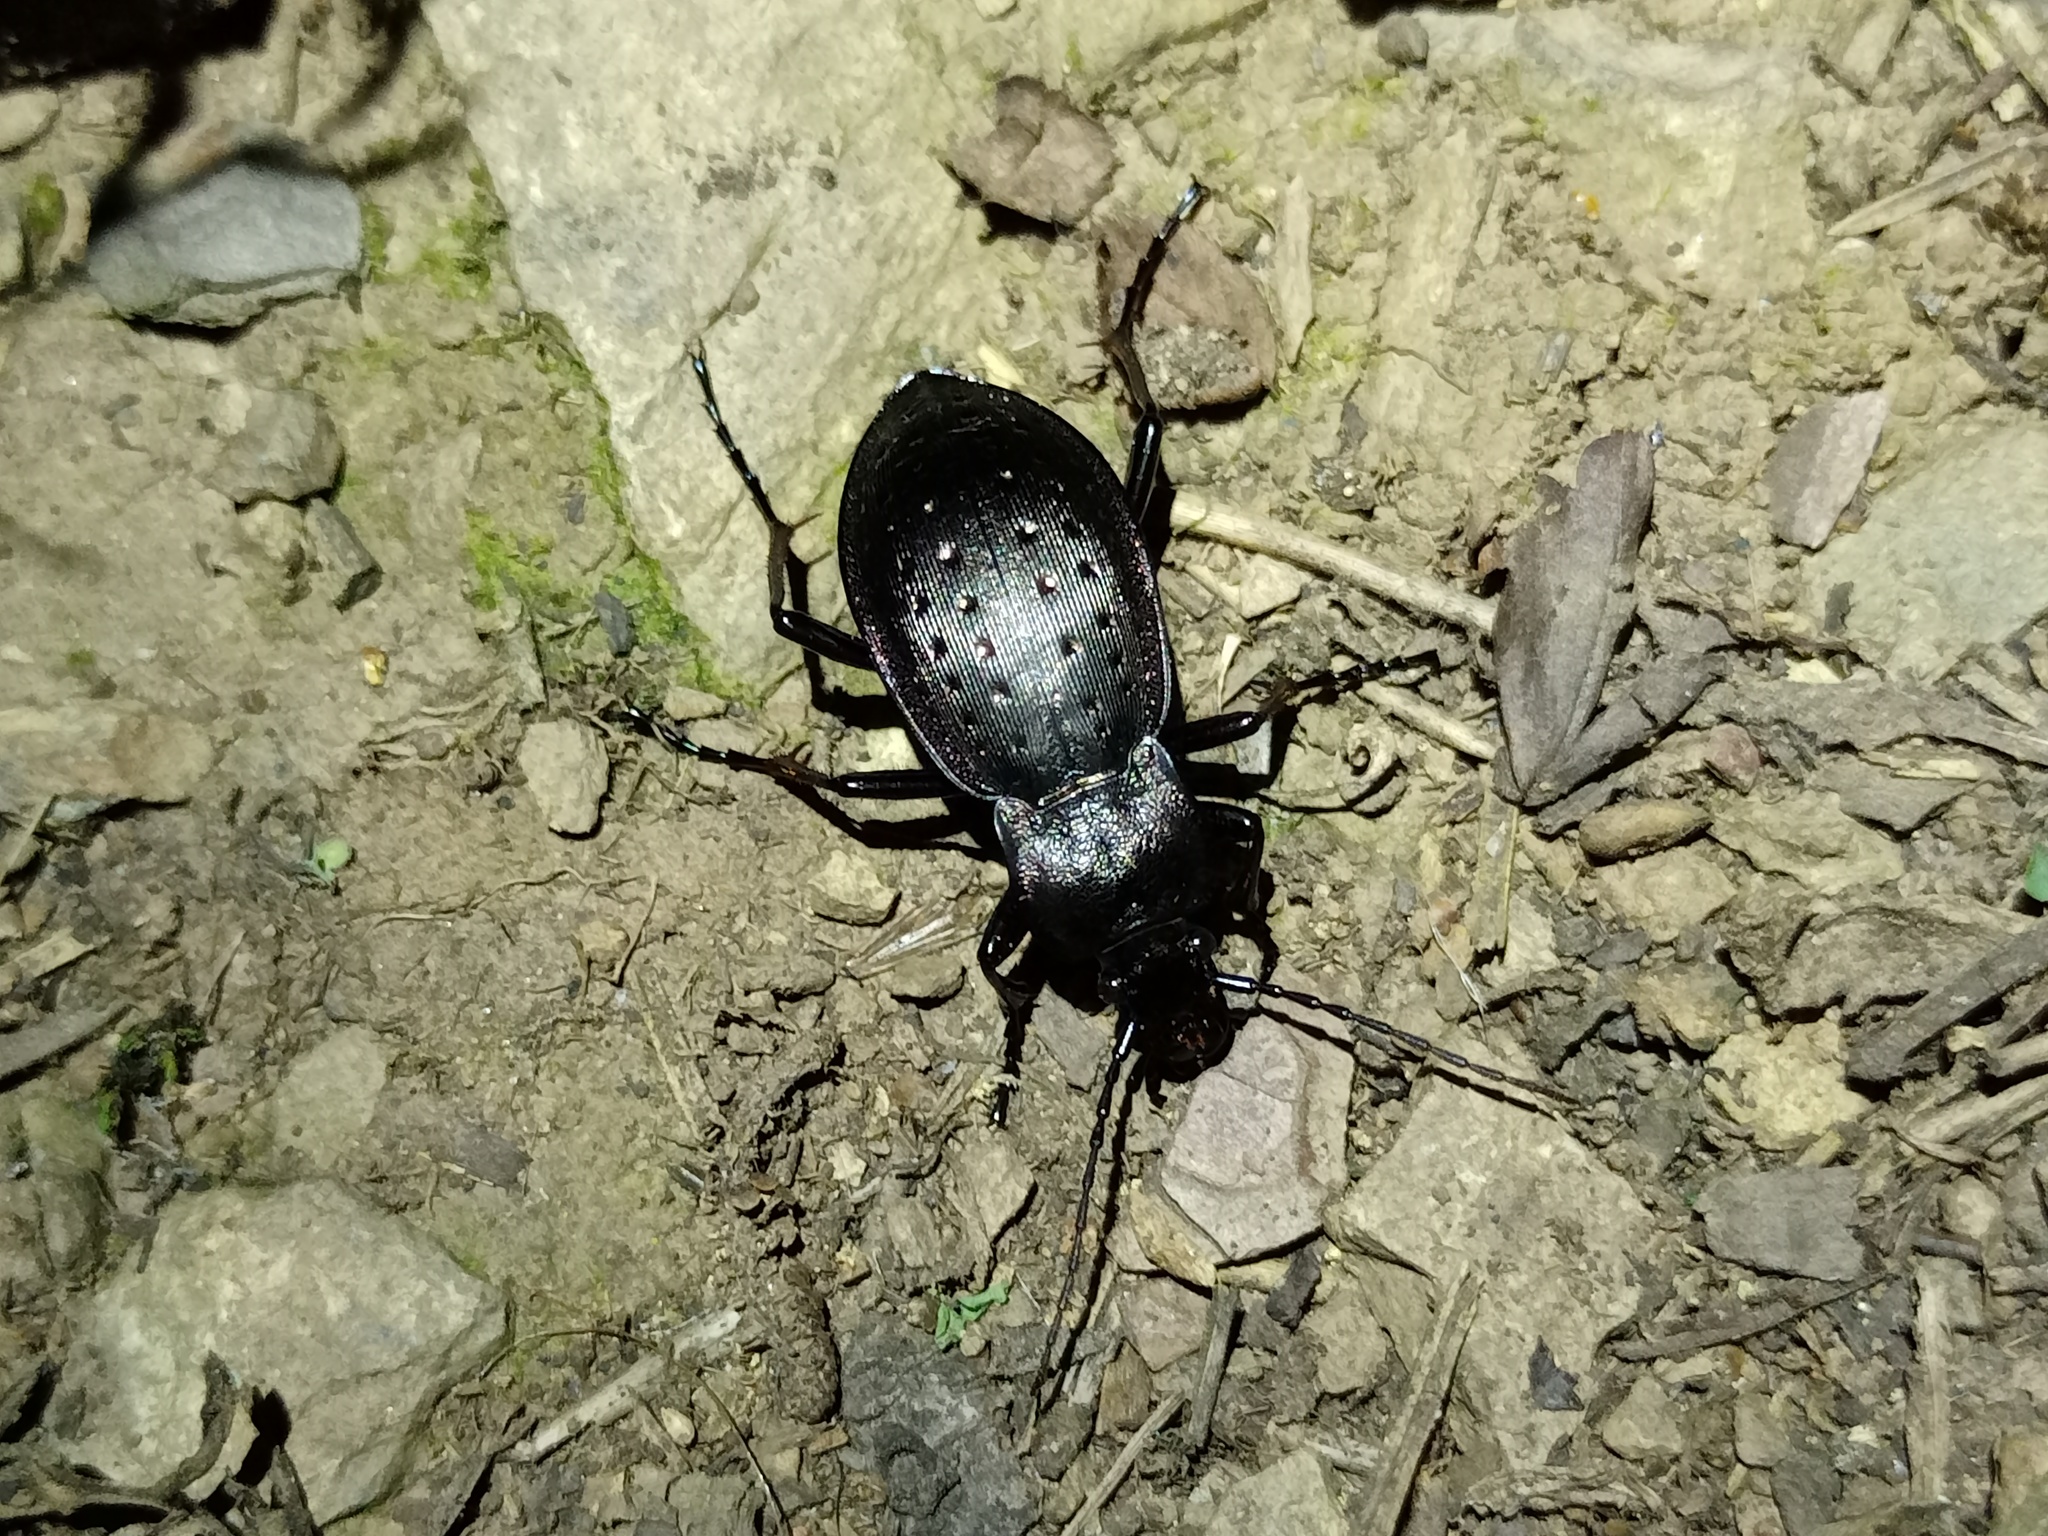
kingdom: Animalia
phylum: Arthropoda
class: Insecta
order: Coleoptera
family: Carabidae
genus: Carabus
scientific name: Carabus hortensis
